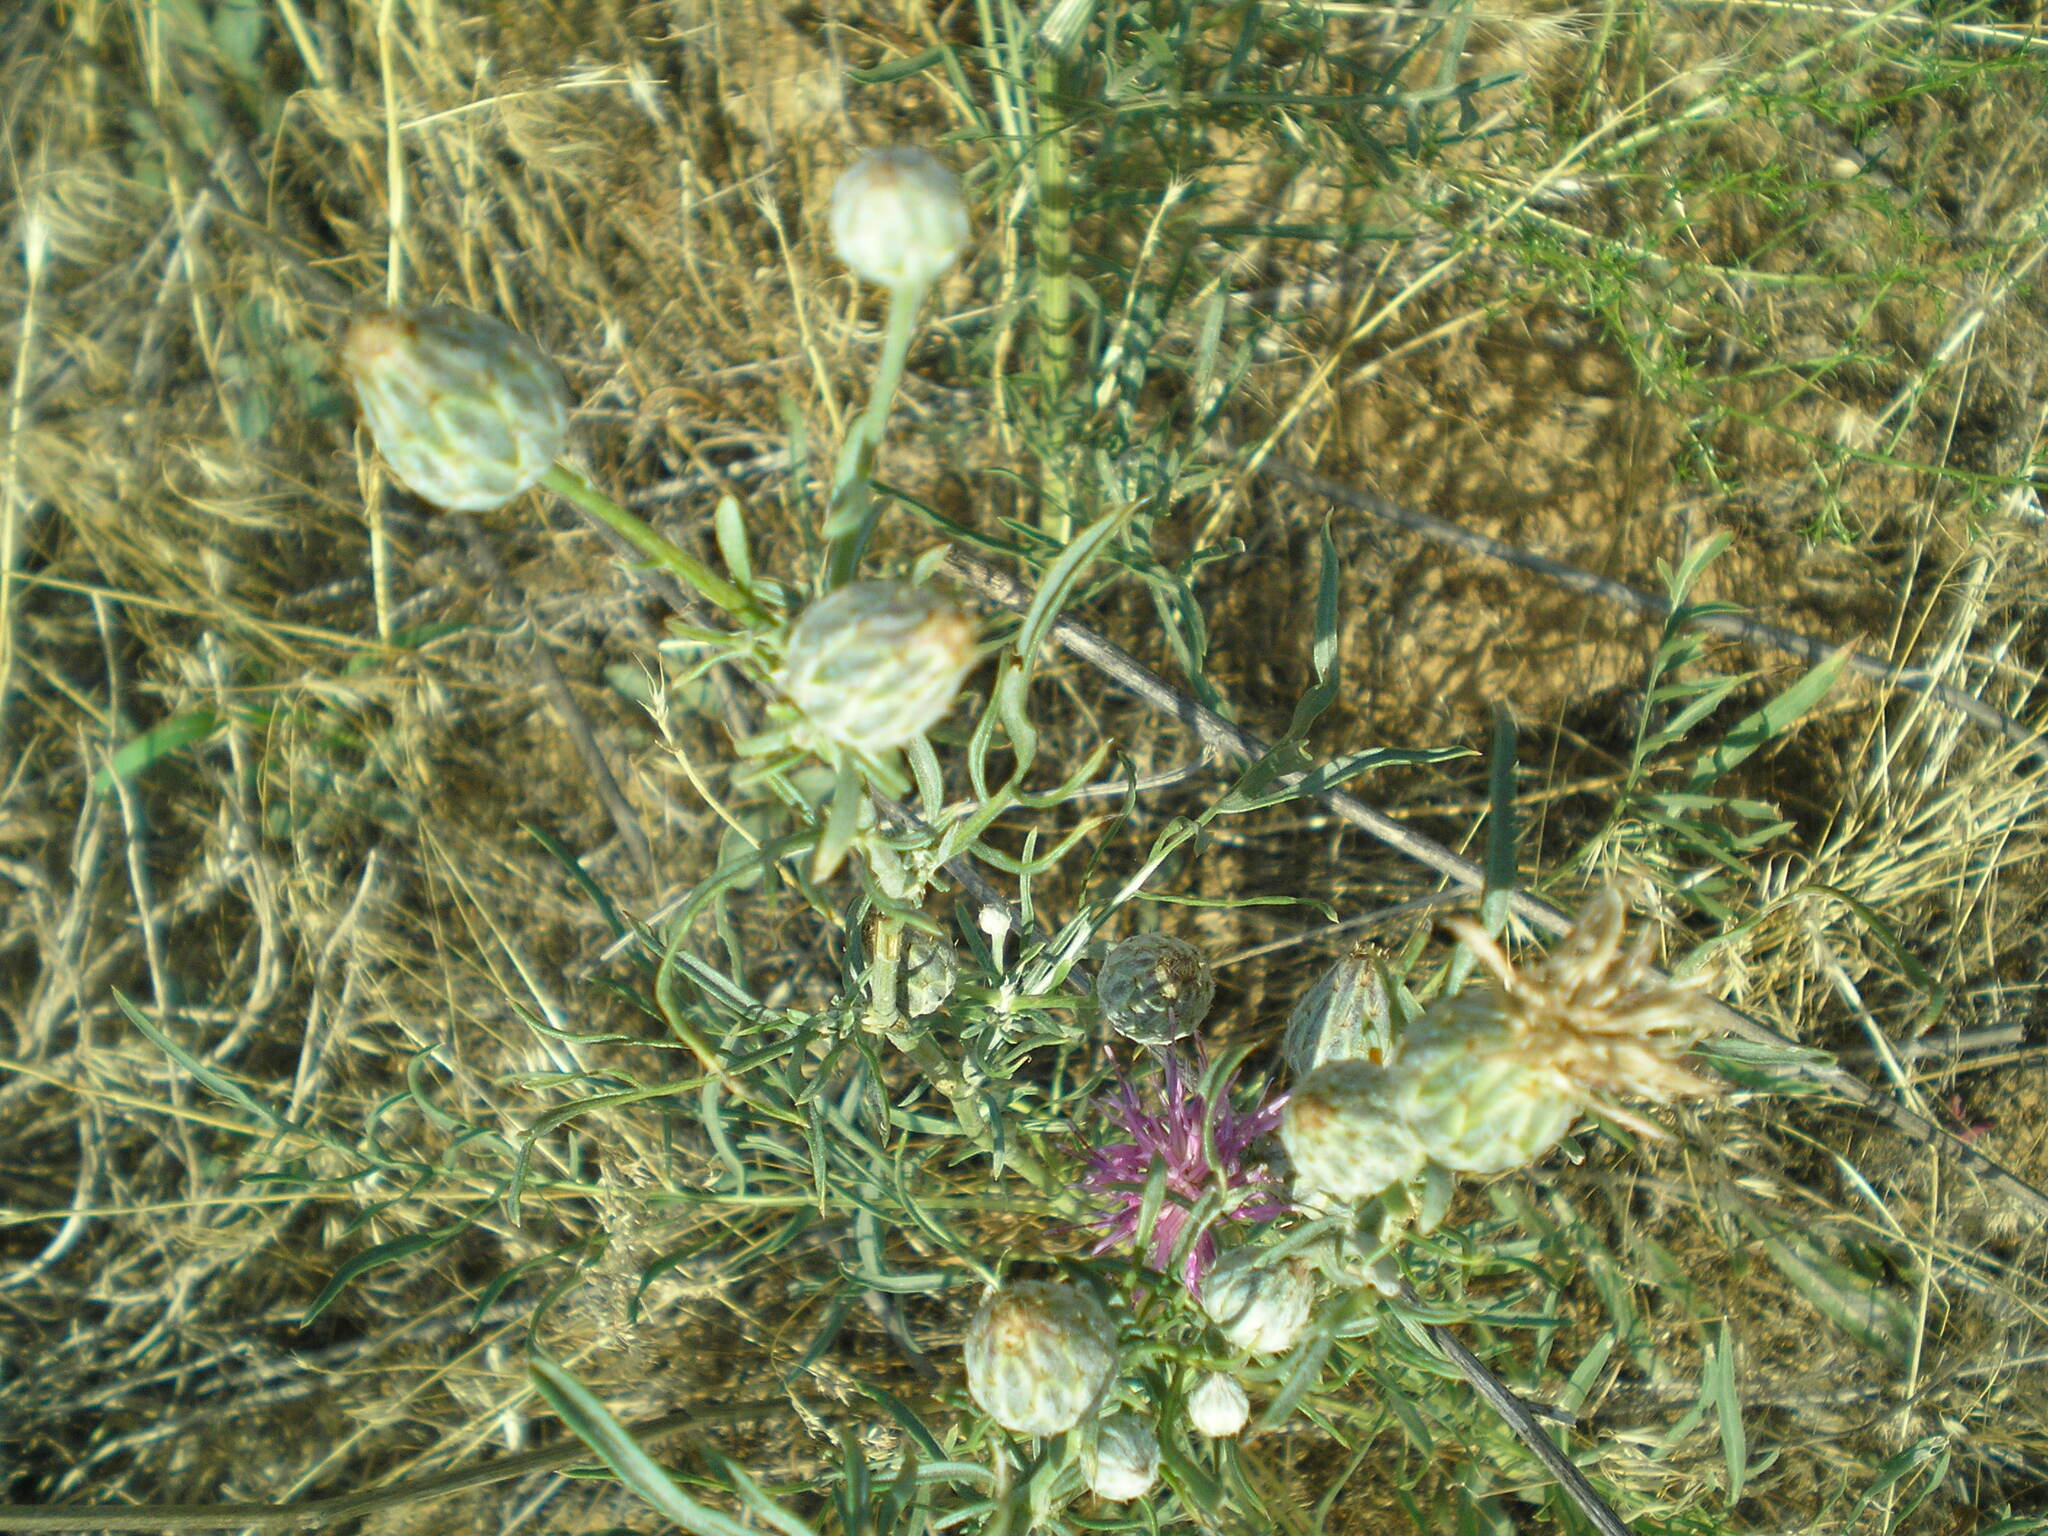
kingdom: Plantae
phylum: Tracheophyta
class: Magnoliopsida
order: Asterales
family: Asteraceae
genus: Centaurea
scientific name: Centaurea adpressa
